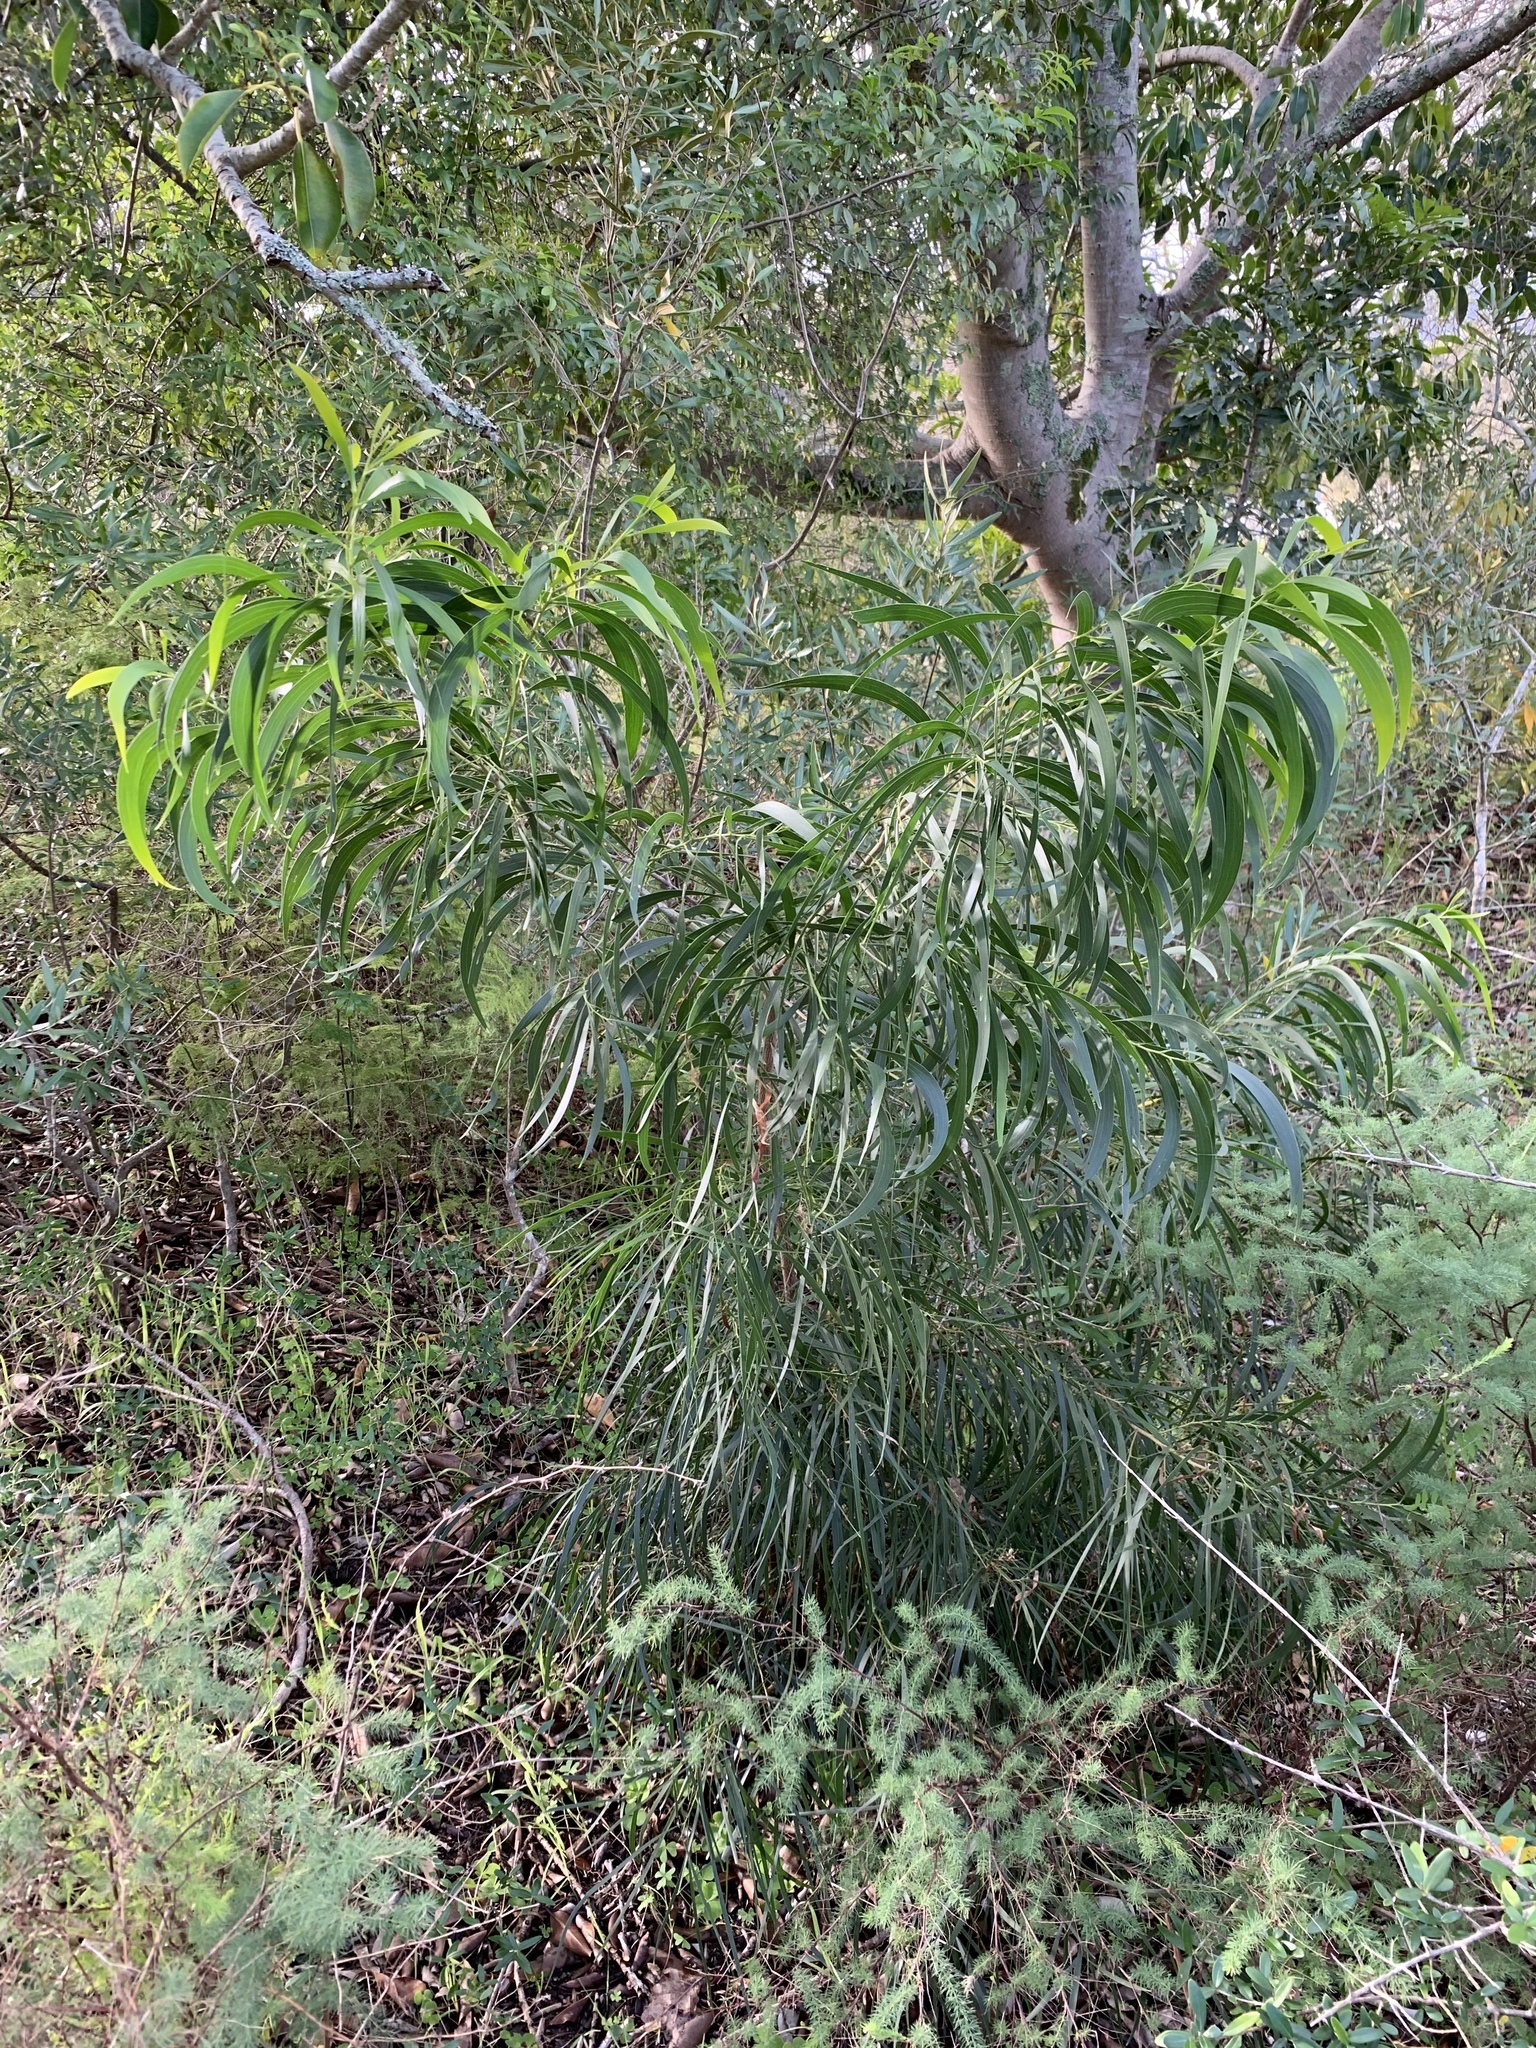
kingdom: Plantae
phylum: Tracheophyta
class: Magnoliopsida
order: Fabales
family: Fabaceae
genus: Acacia
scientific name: Acacia implexa
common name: Black wattle
